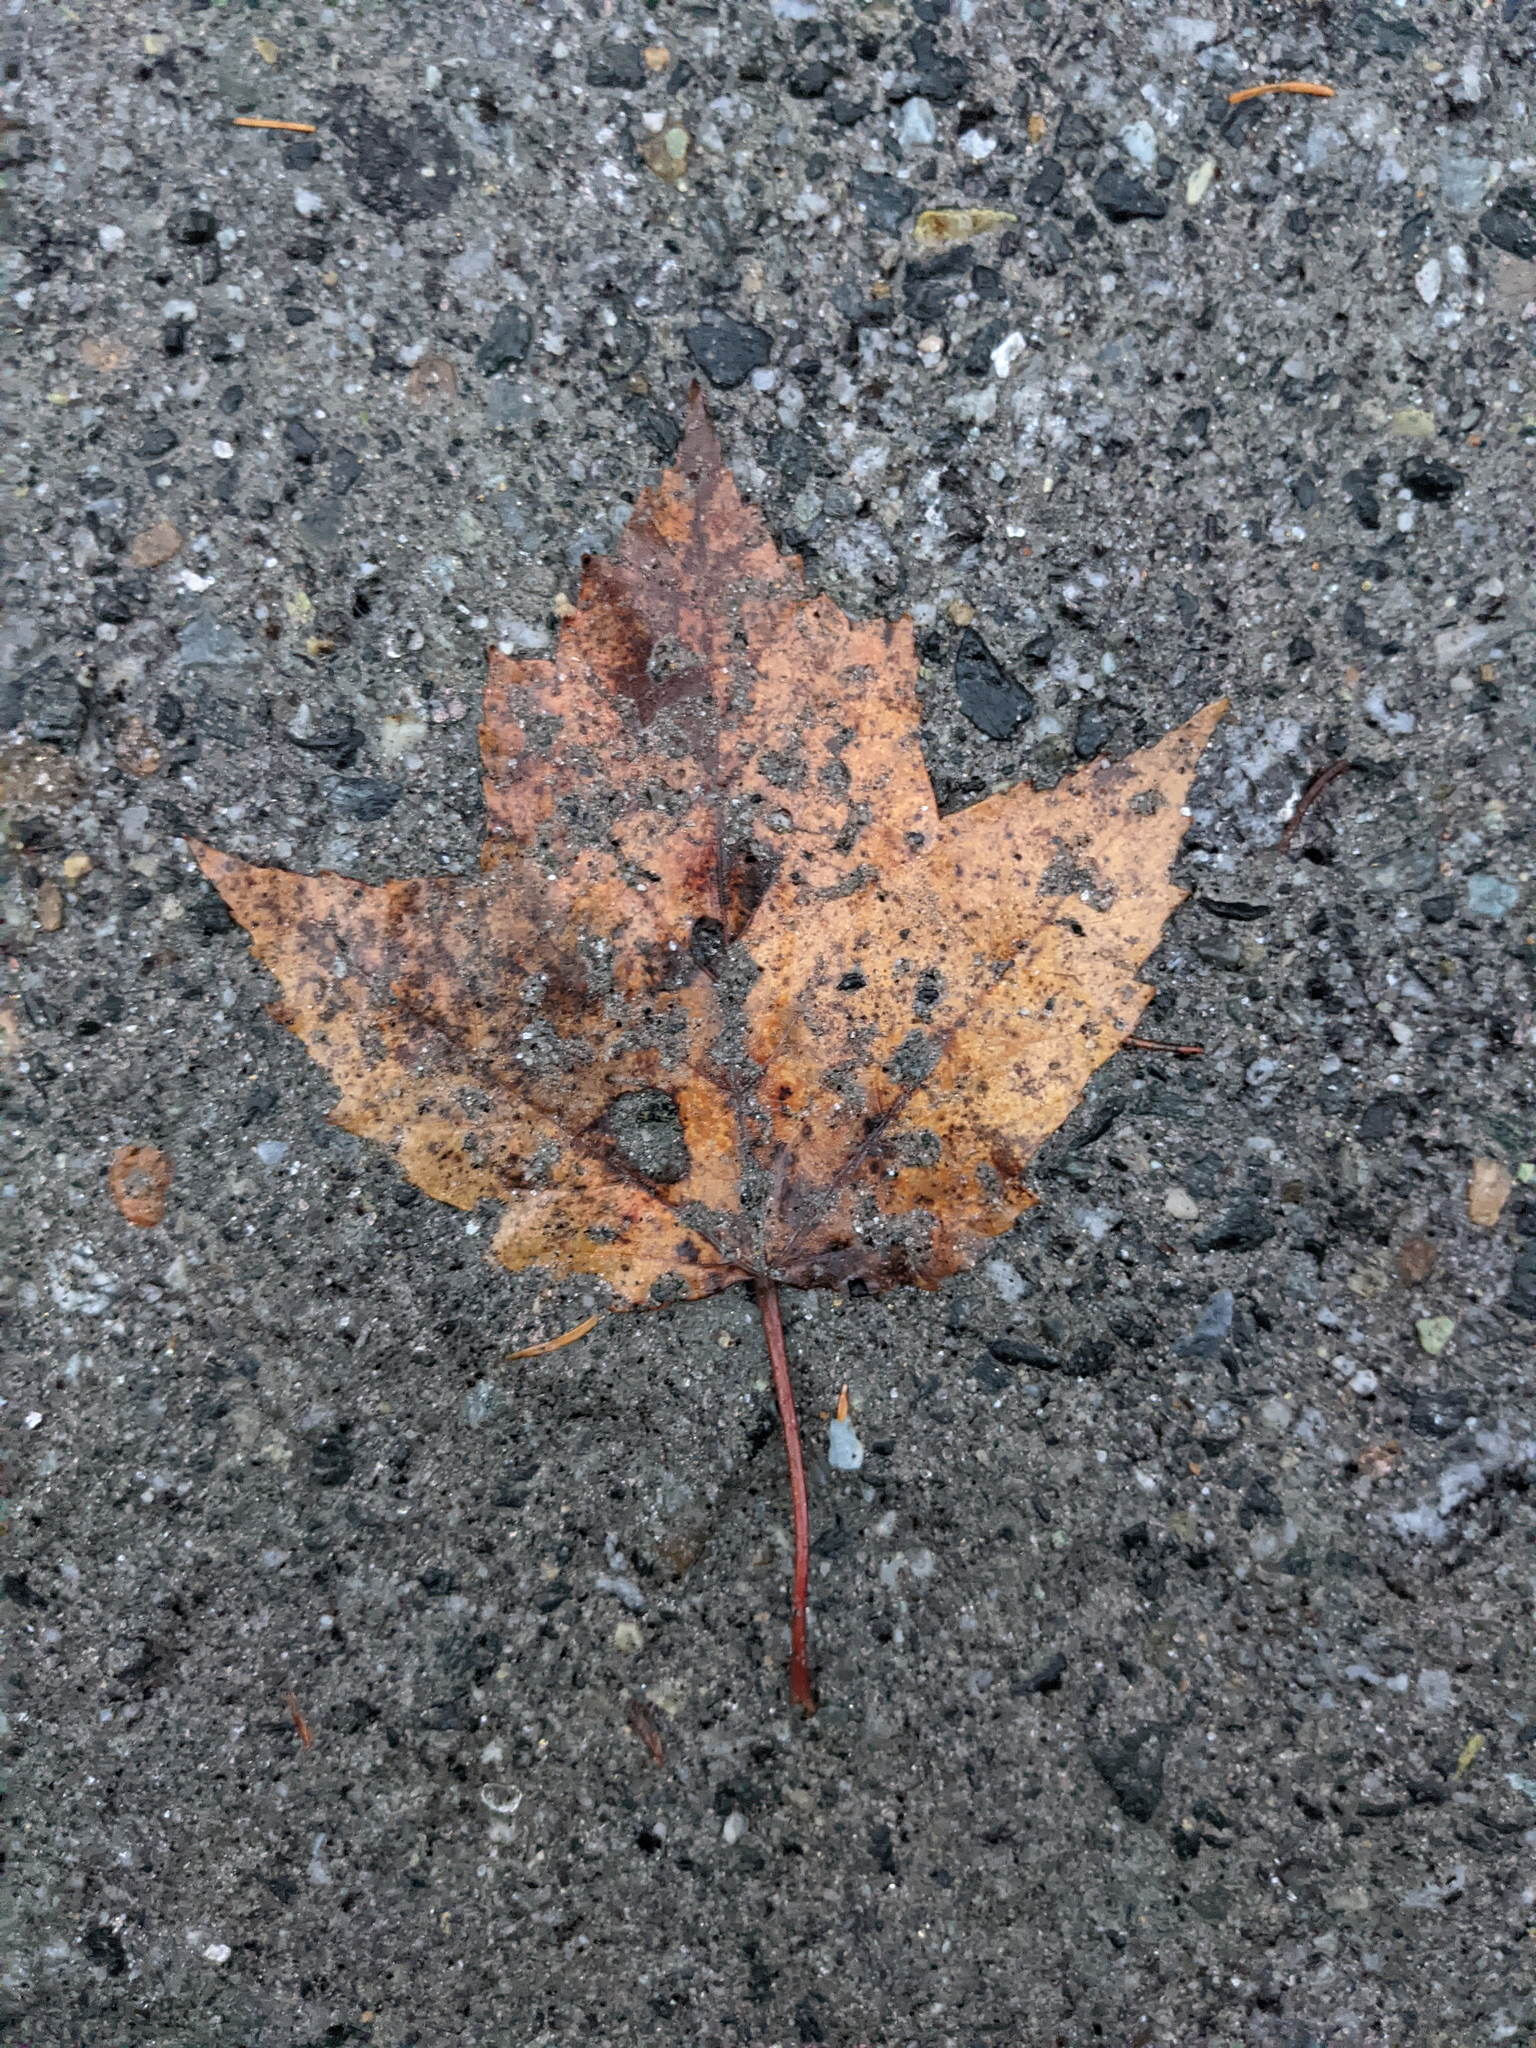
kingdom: Plantae
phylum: Tracheophyta
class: Magnoliopsida
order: Sapindales
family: Sapindaceae
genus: Acer
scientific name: Acer rubrum
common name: Red maple
